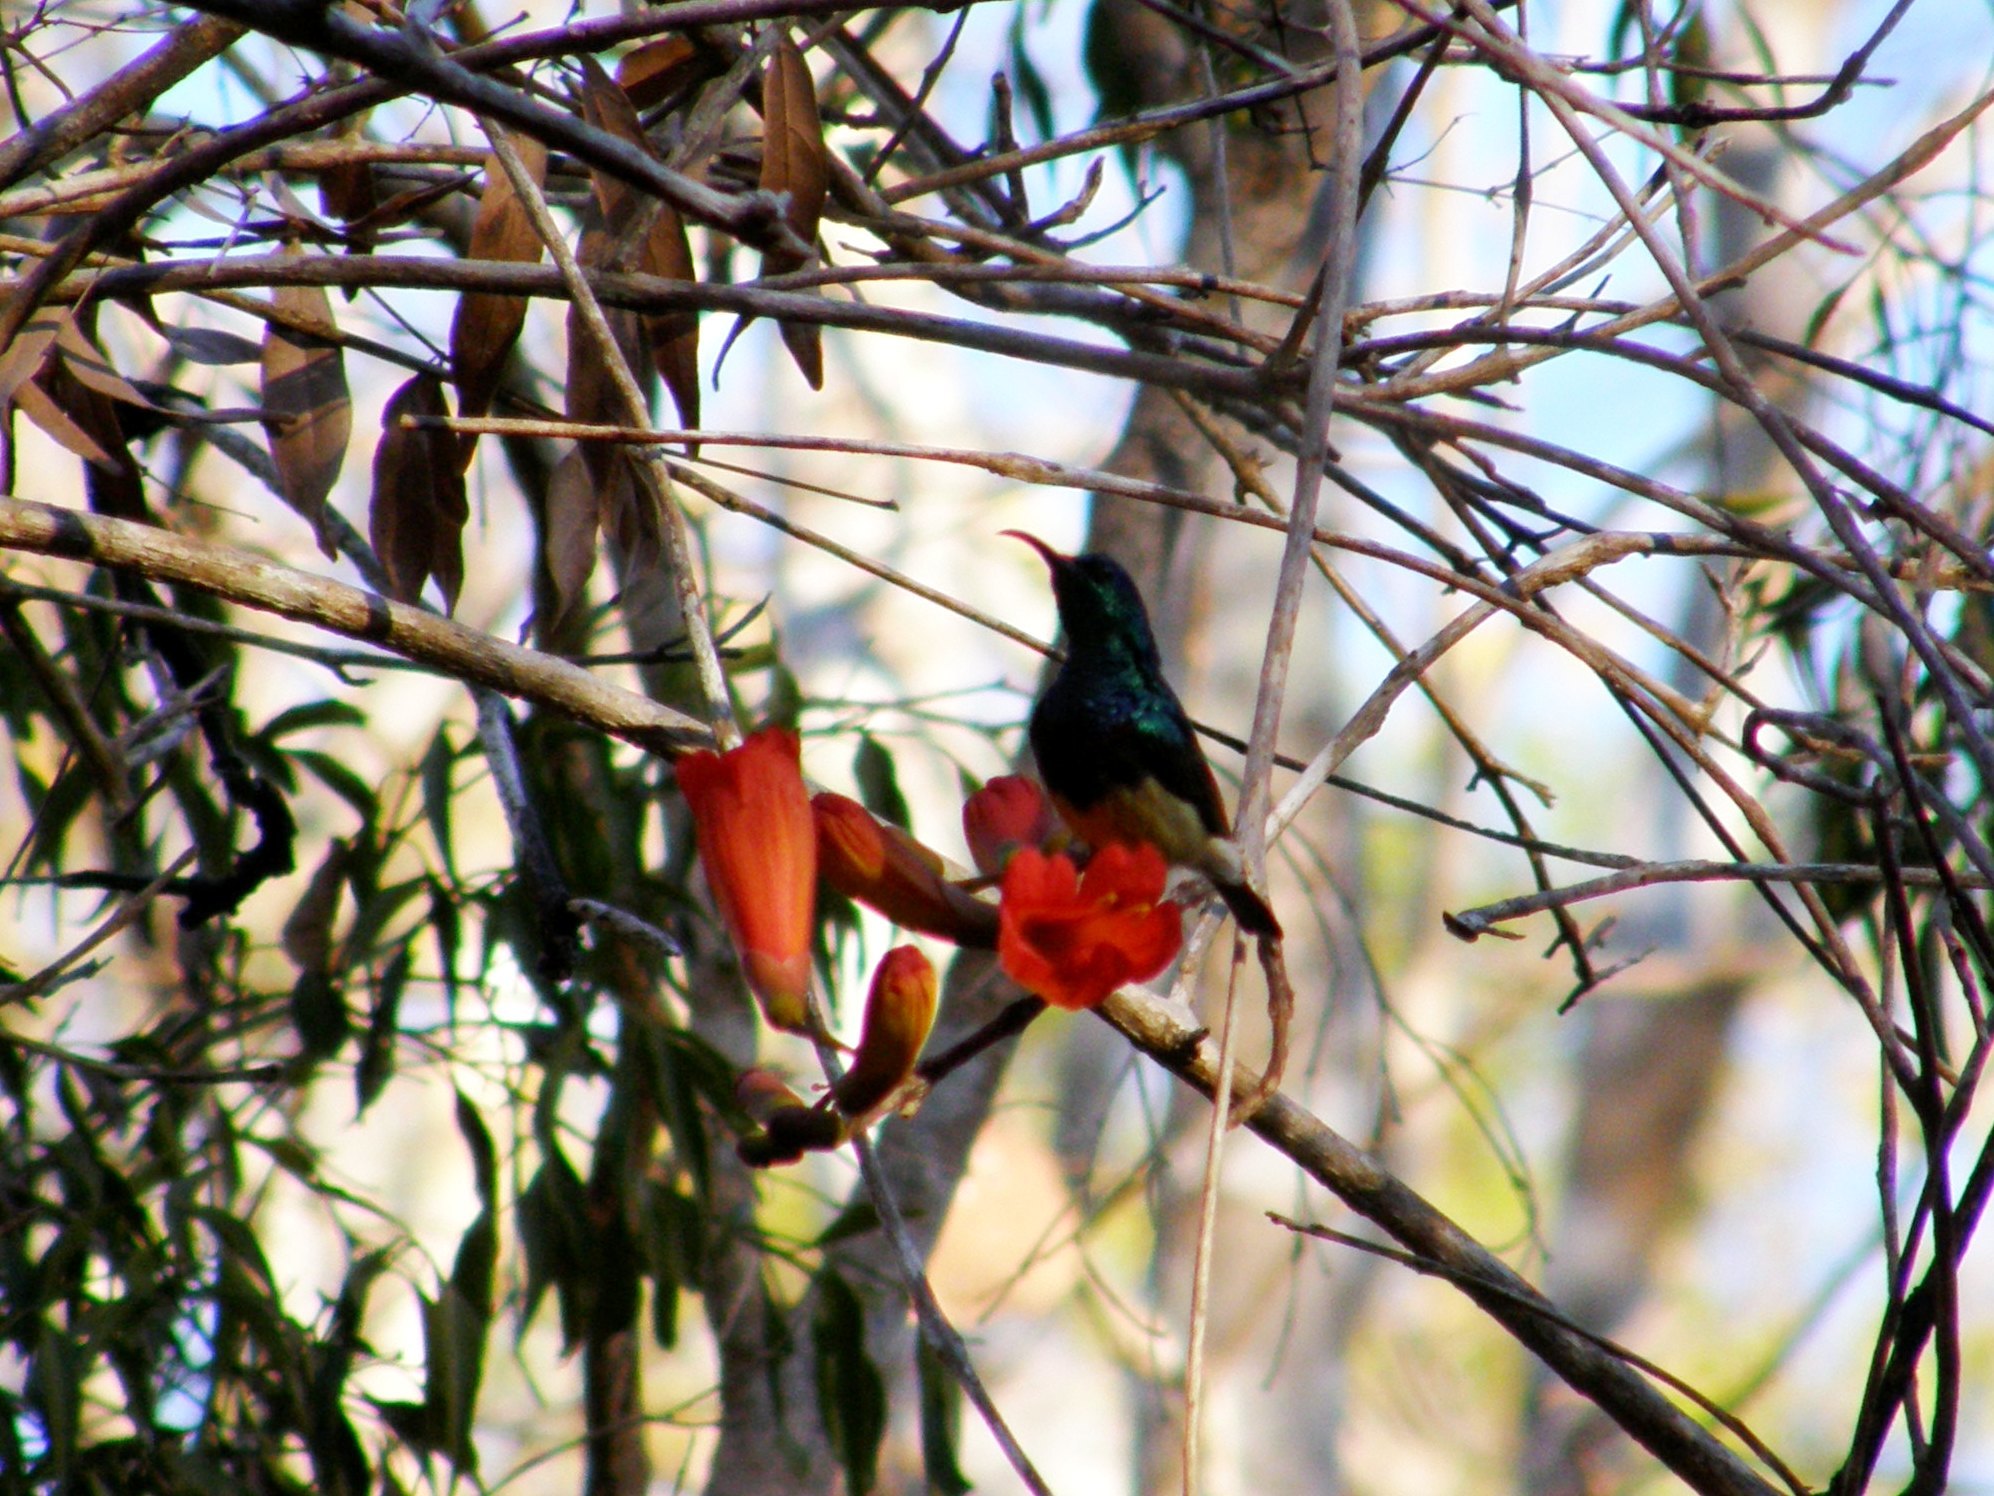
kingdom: Animalia
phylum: Chordata
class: Aves
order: Passeriformes
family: Nectariniidae
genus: Cinnyris
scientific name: Cinnyris sovimanga
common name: Souimanga sunbird
